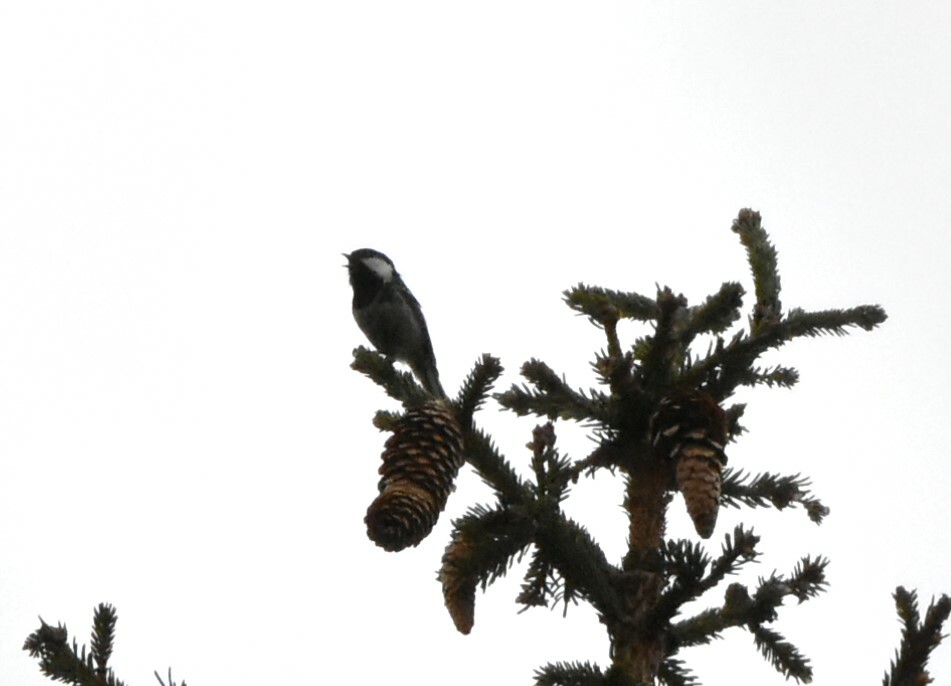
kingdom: Animalia
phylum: Chordata
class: Aves
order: Passeriformes
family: Paridae
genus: Periparus
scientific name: Periparus ater
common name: Coal tit
